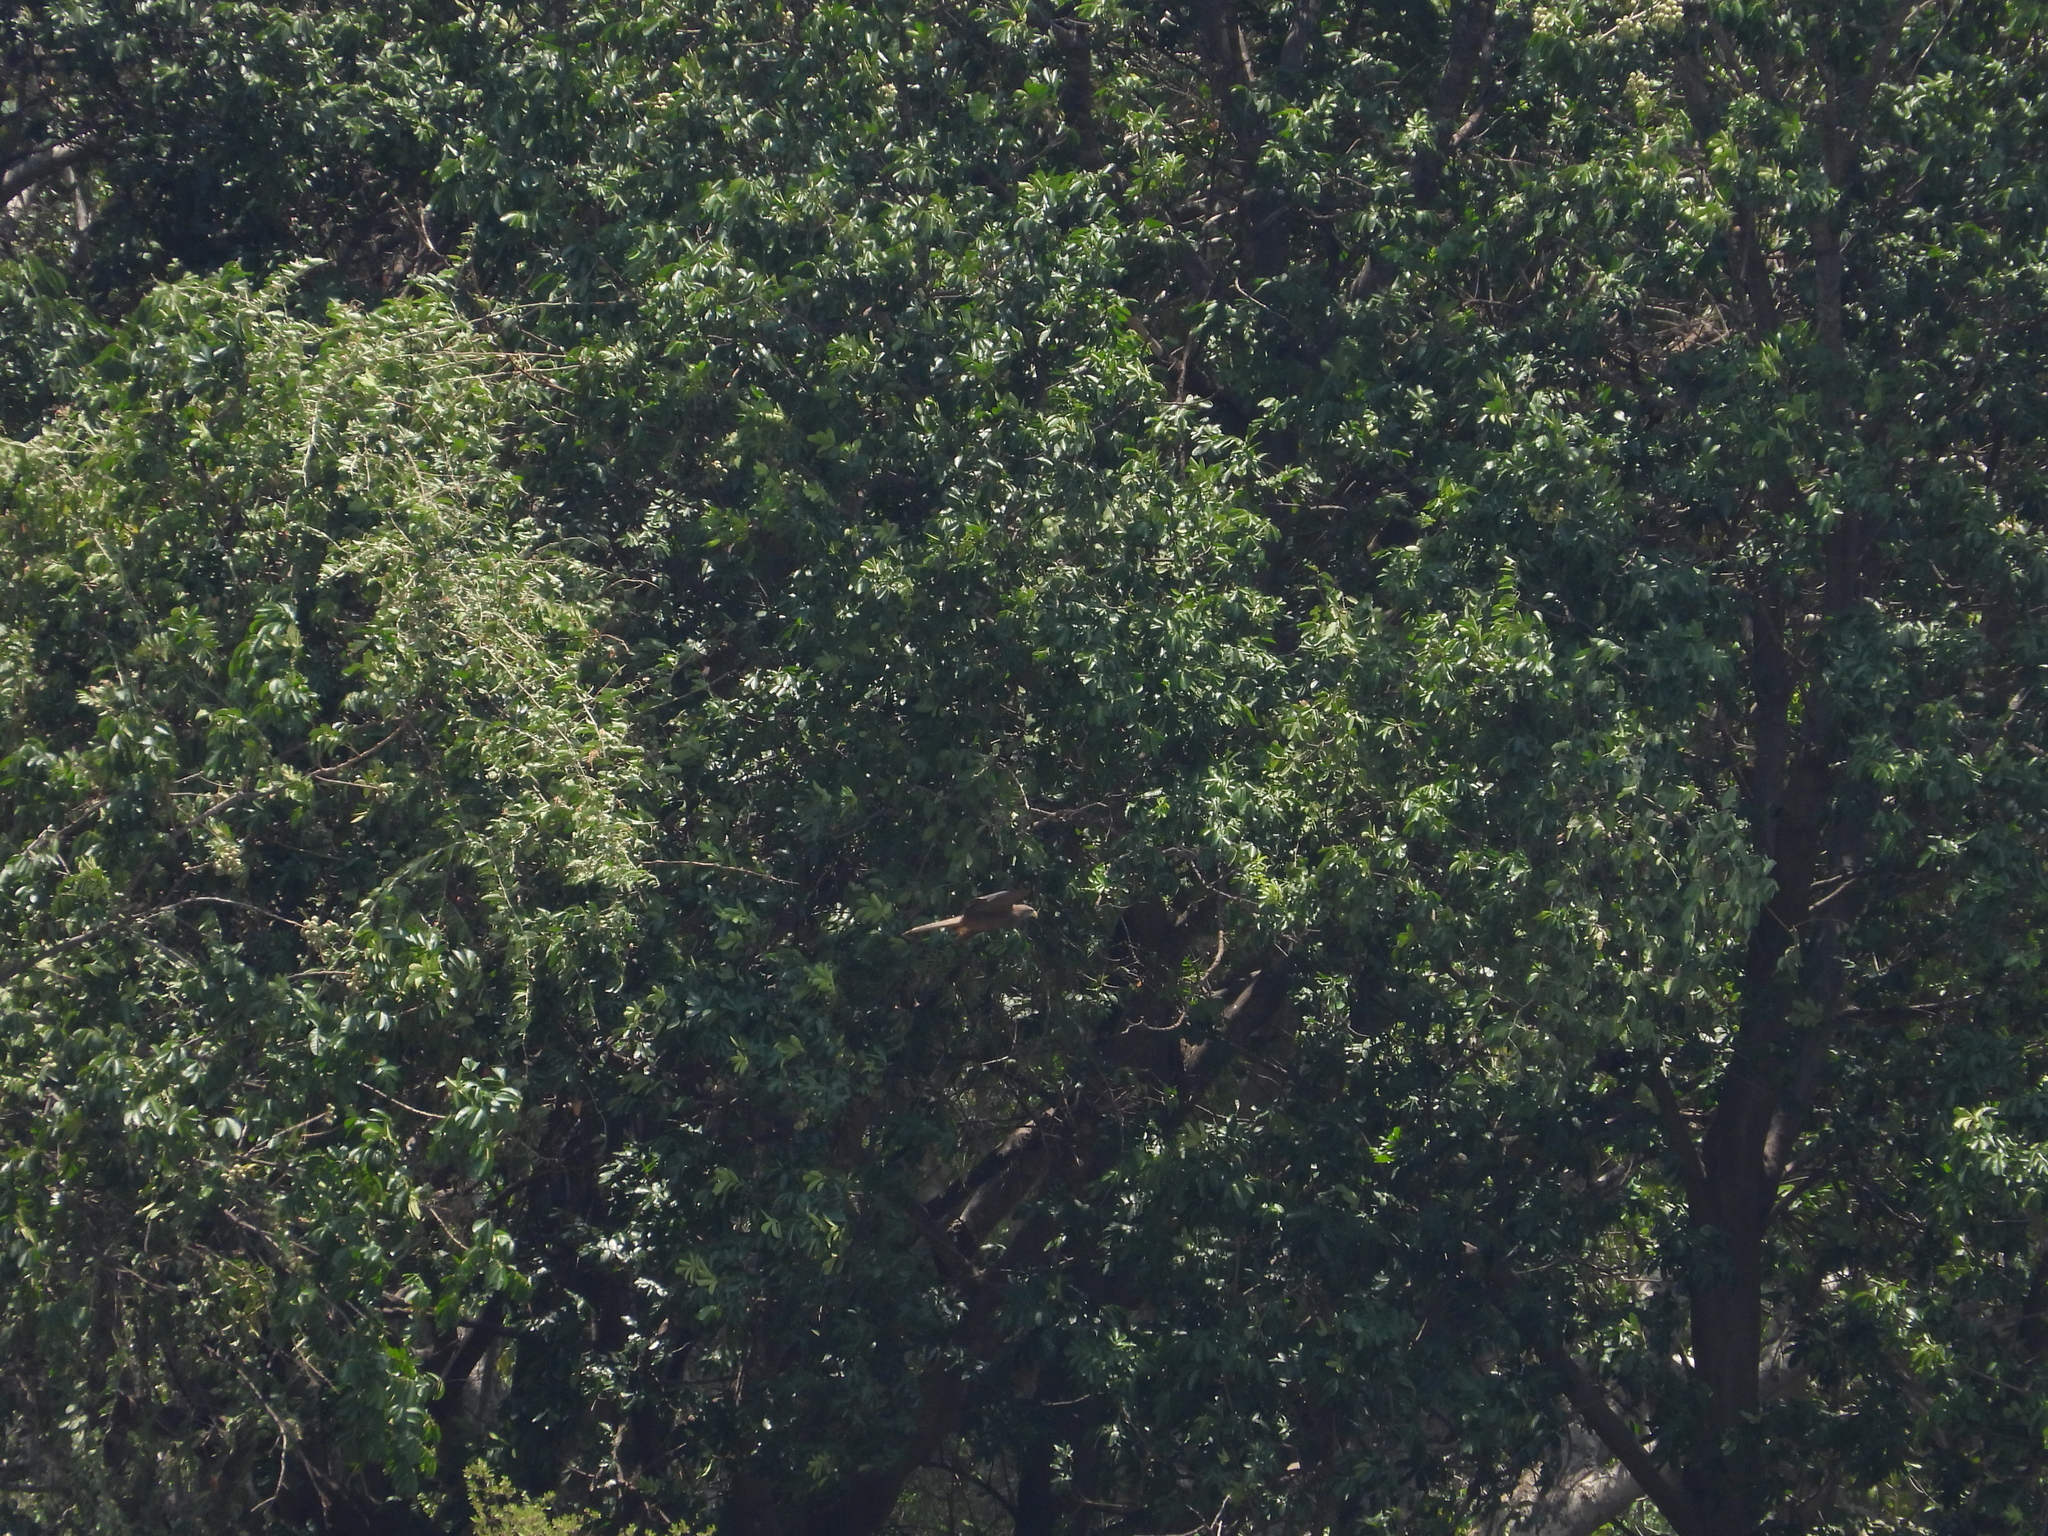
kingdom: Animalia
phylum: Chordata
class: Aves
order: Accipitriformes
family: Accipitridae
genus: Milvus
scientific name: Milvus migrans
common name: Black kite
